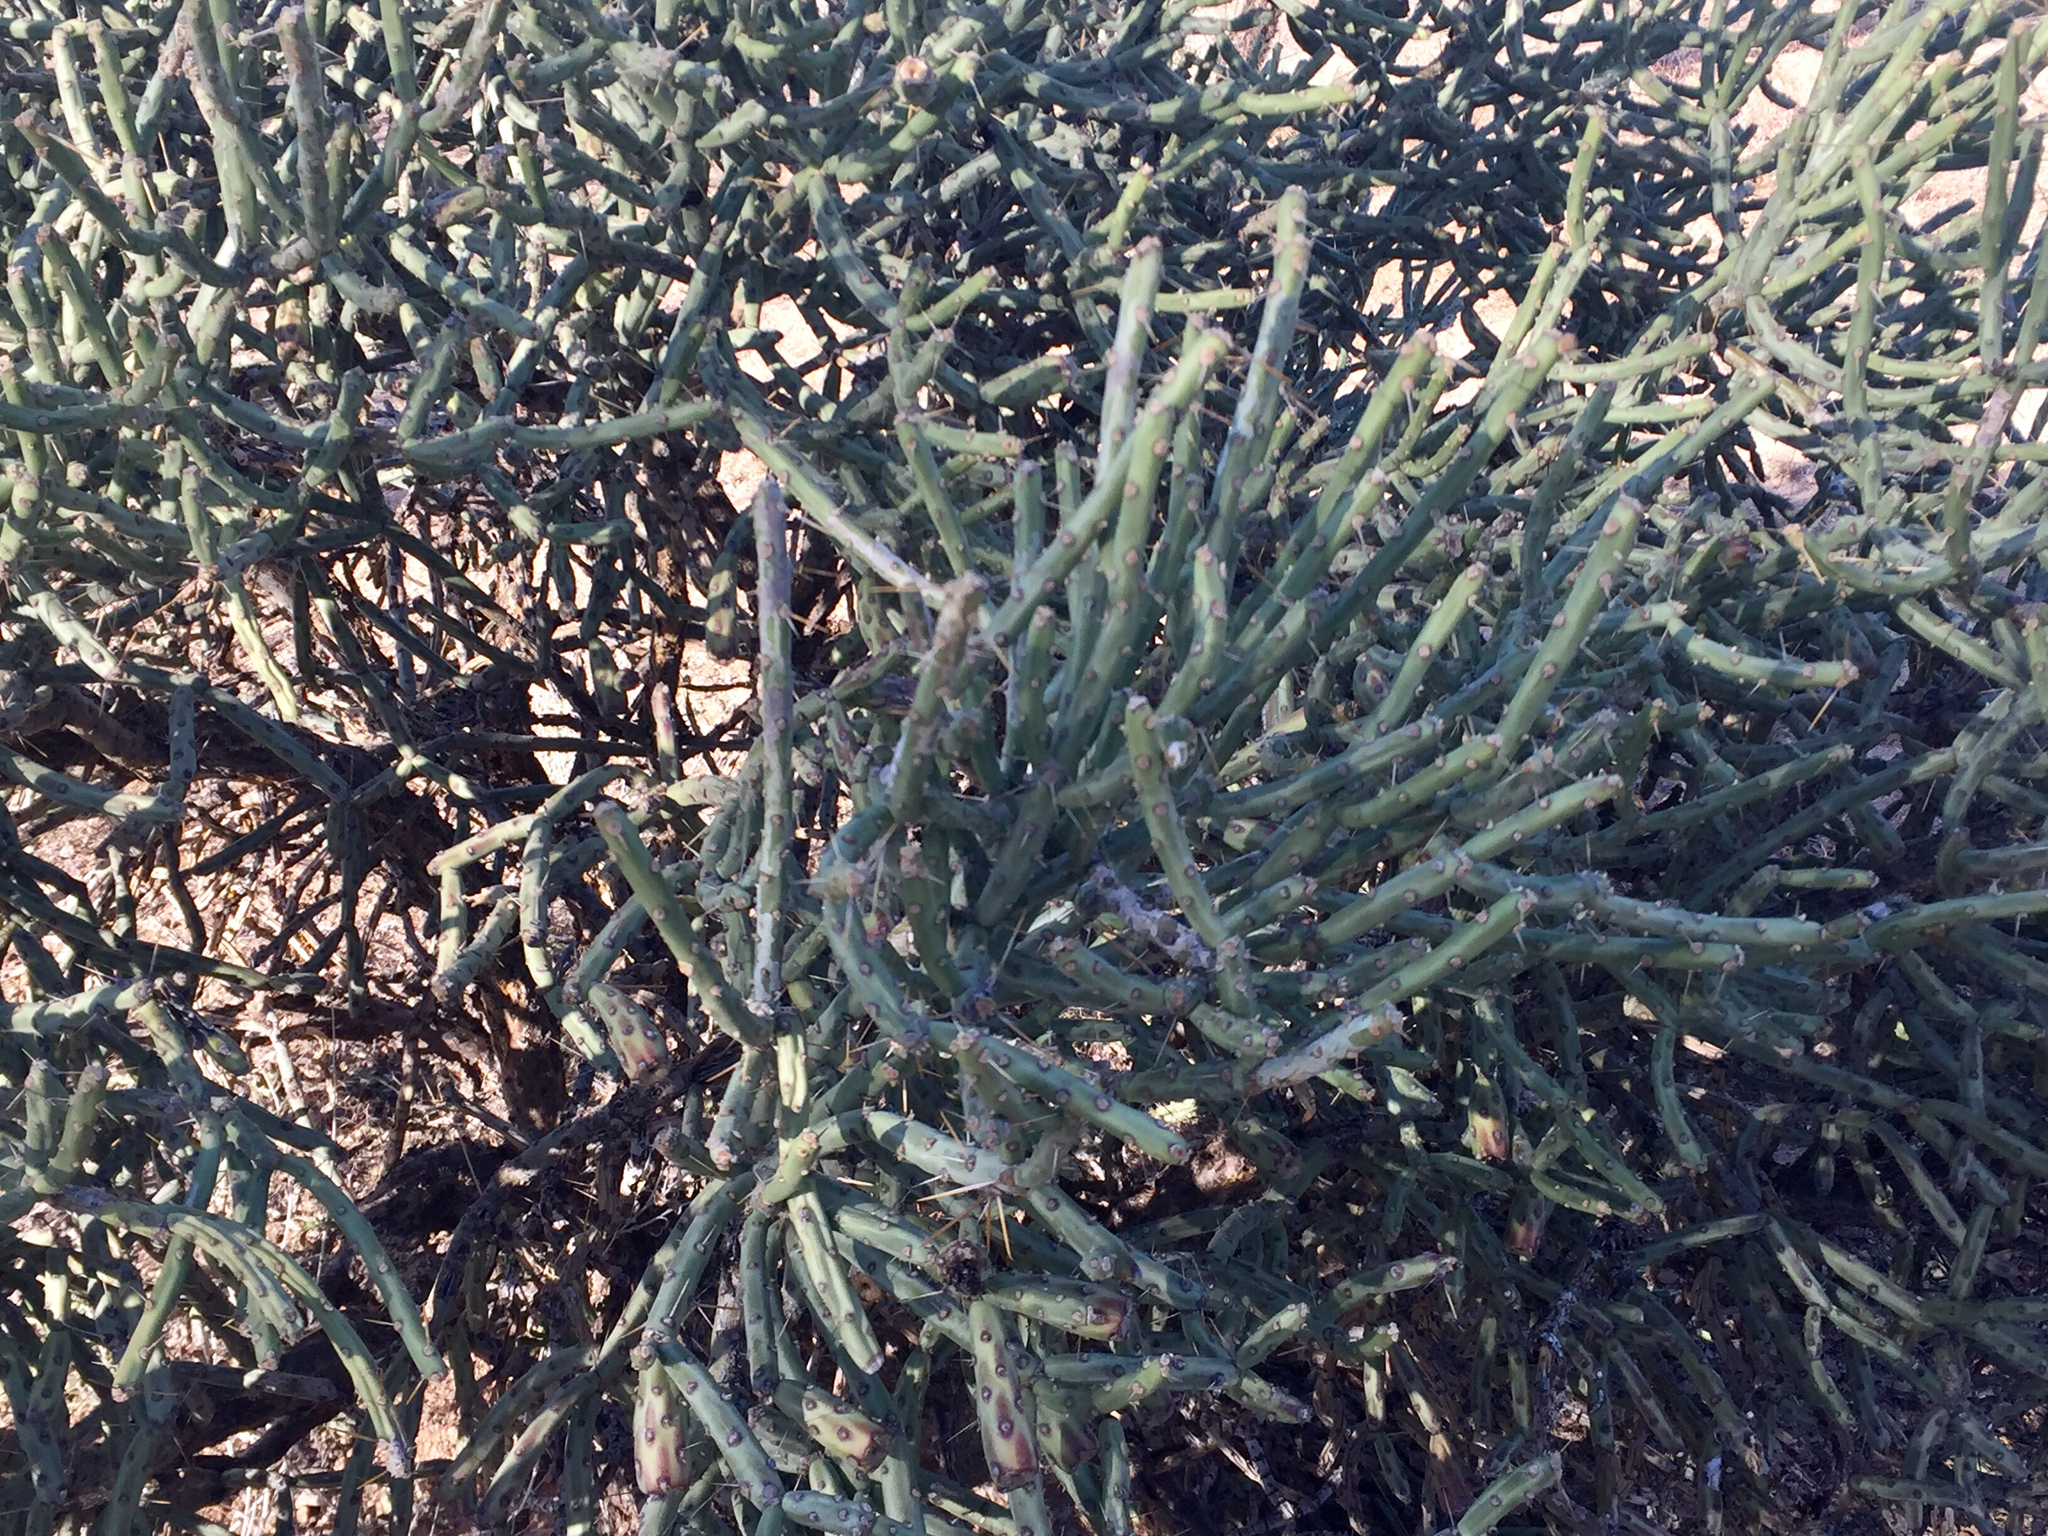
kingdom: Plantae
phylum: Tracheophyta
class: Magnoliopsida
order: Caryophyllales
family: Cactaceae
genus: Cylindropuntia
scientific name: Cylindropuntia arbuscula
